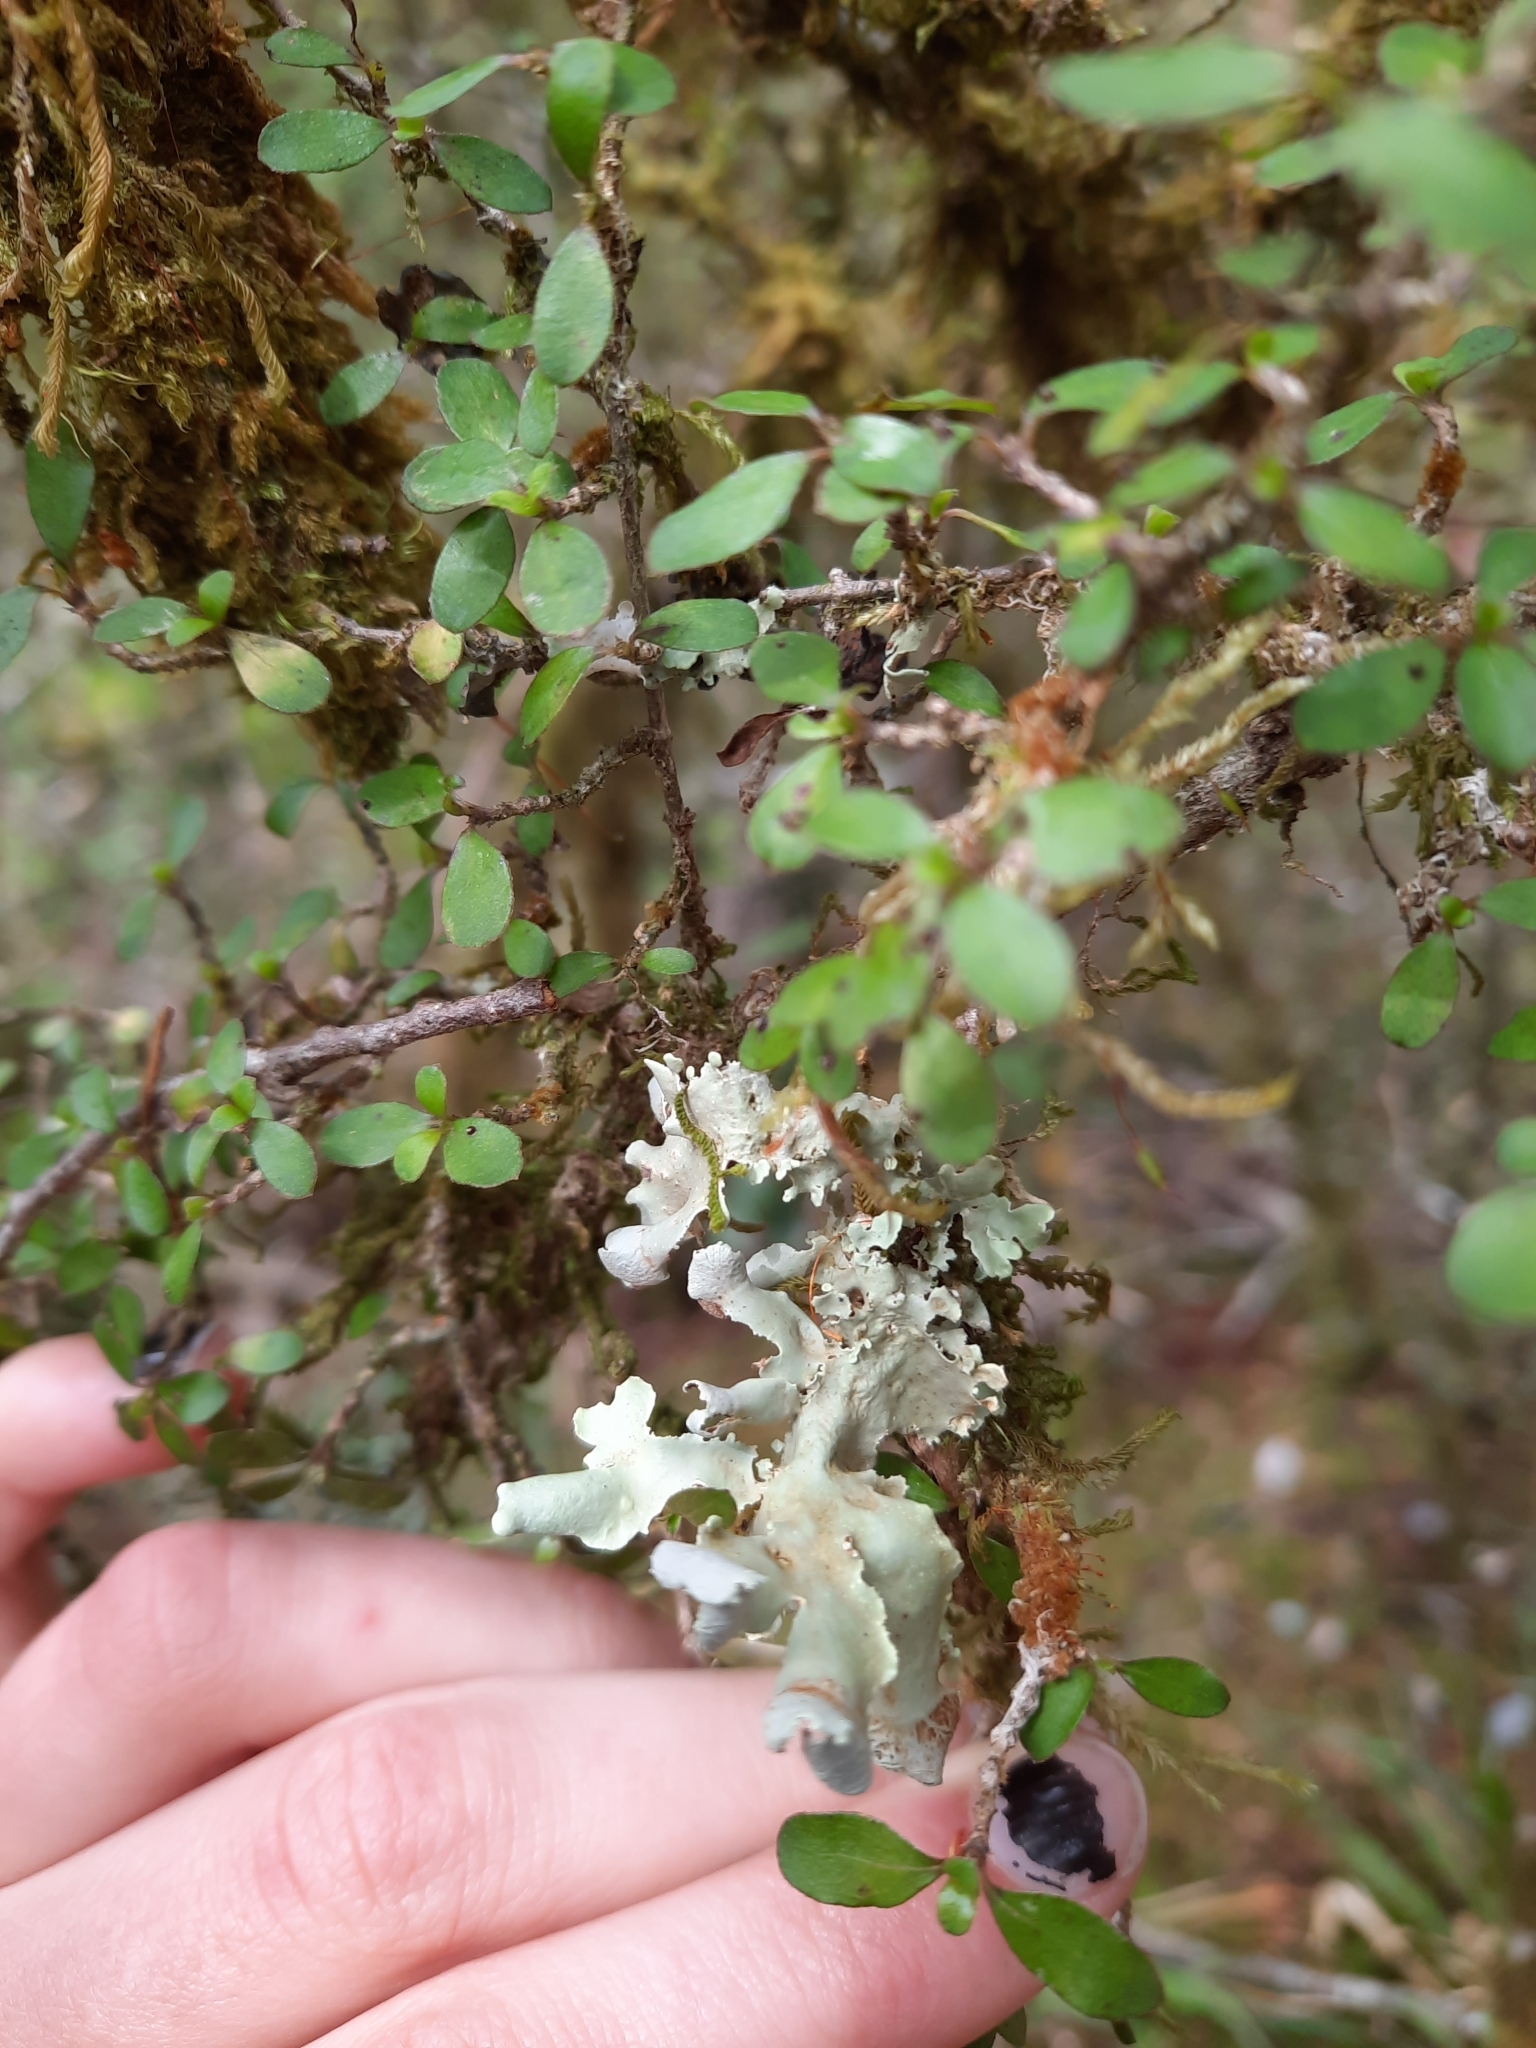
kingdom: Fungi
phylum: Ascomycota
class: Lecanoromycetes
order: Peltigerales
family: Nephromataceae
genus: Nephroma
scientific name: Nephroma australe
